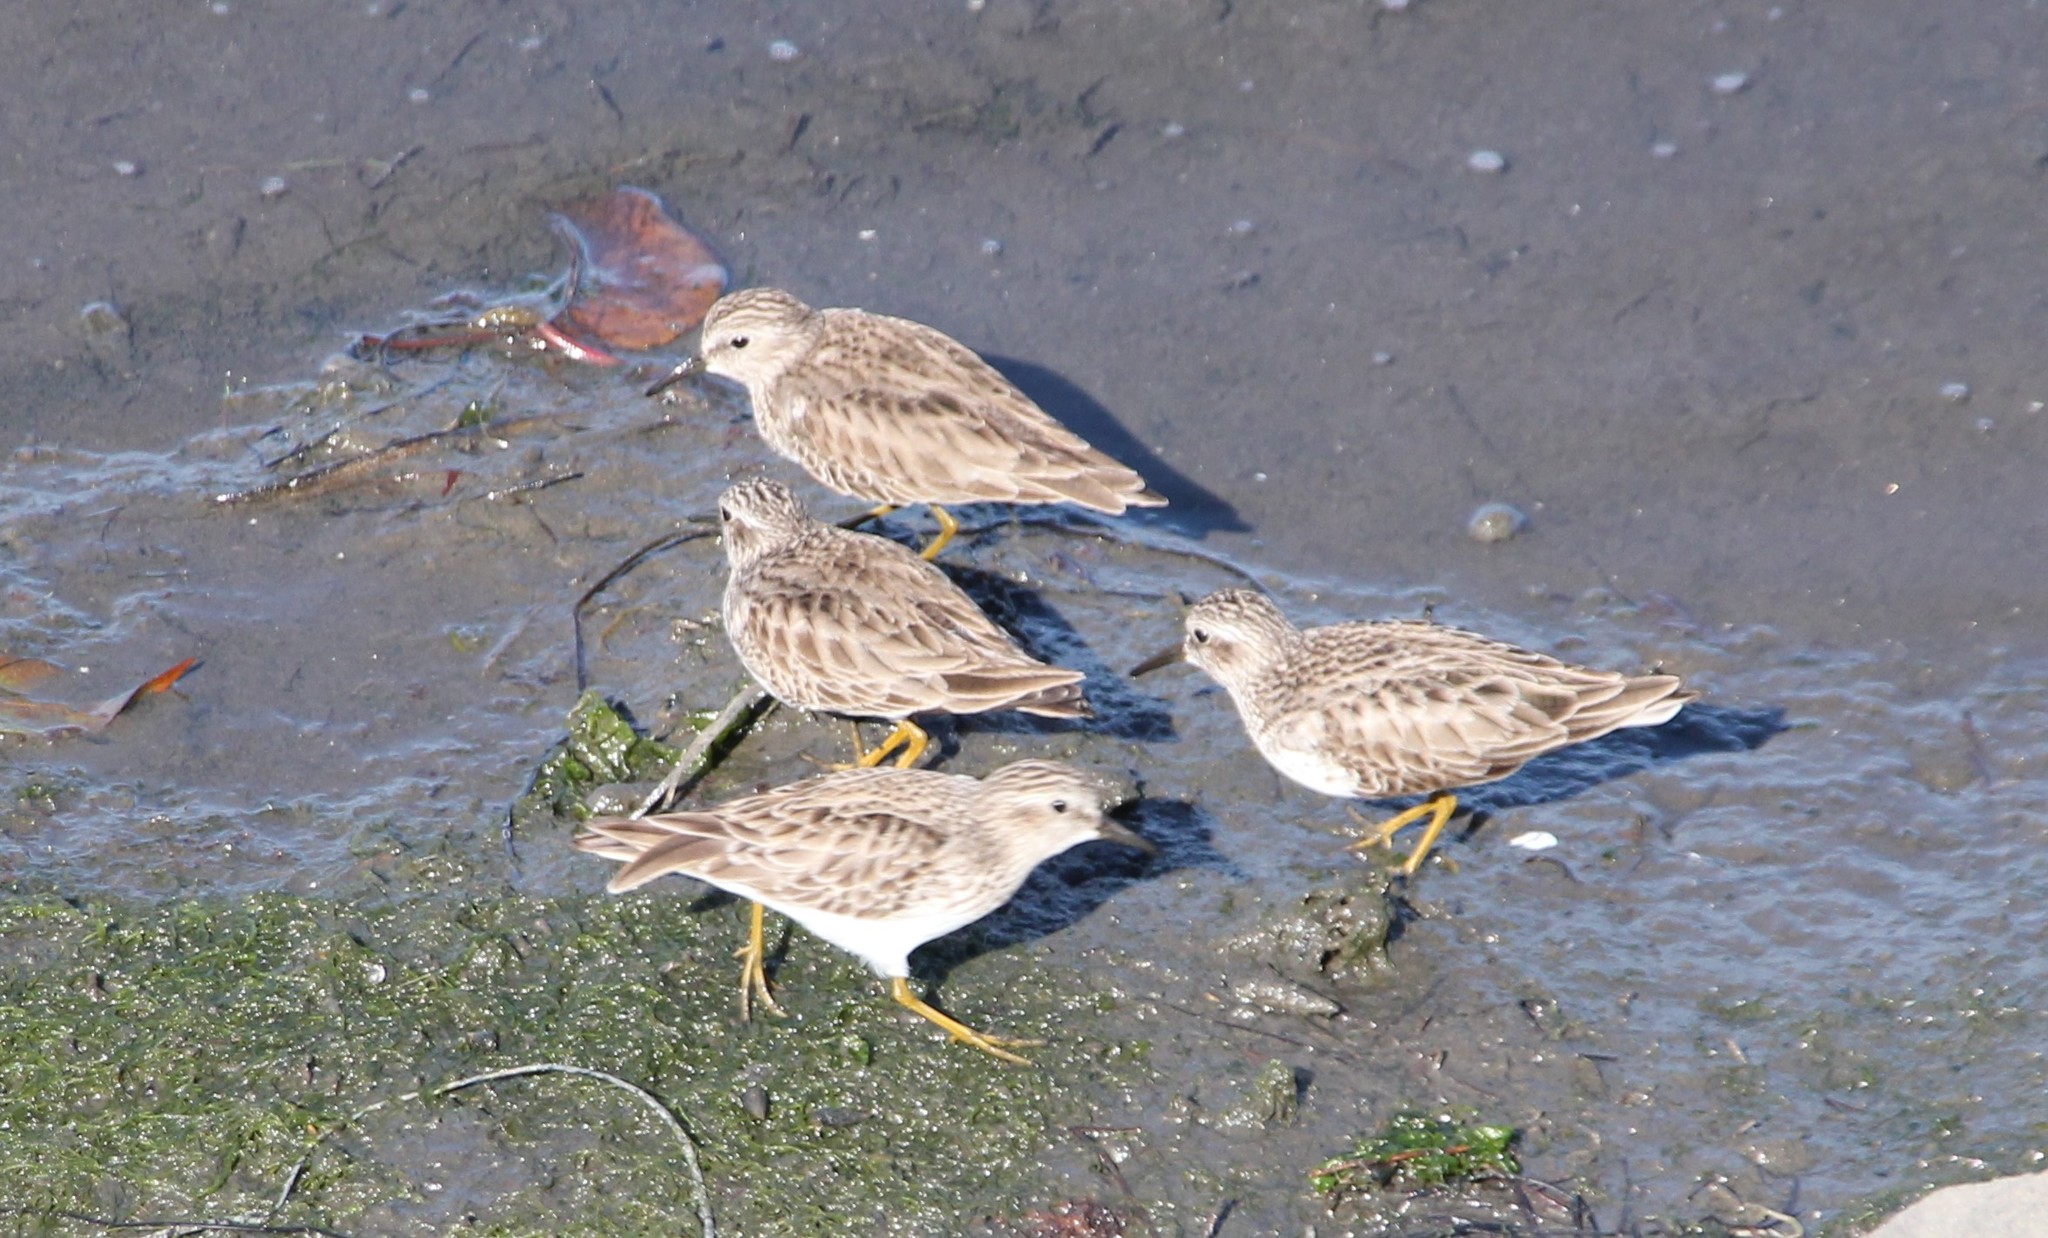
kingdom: Animalia
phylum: Chordata
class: Aves
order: Charadriiformes
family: Scolopacidae
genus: Calidris
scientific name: Calidris minutilla
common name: Least sandpiper
